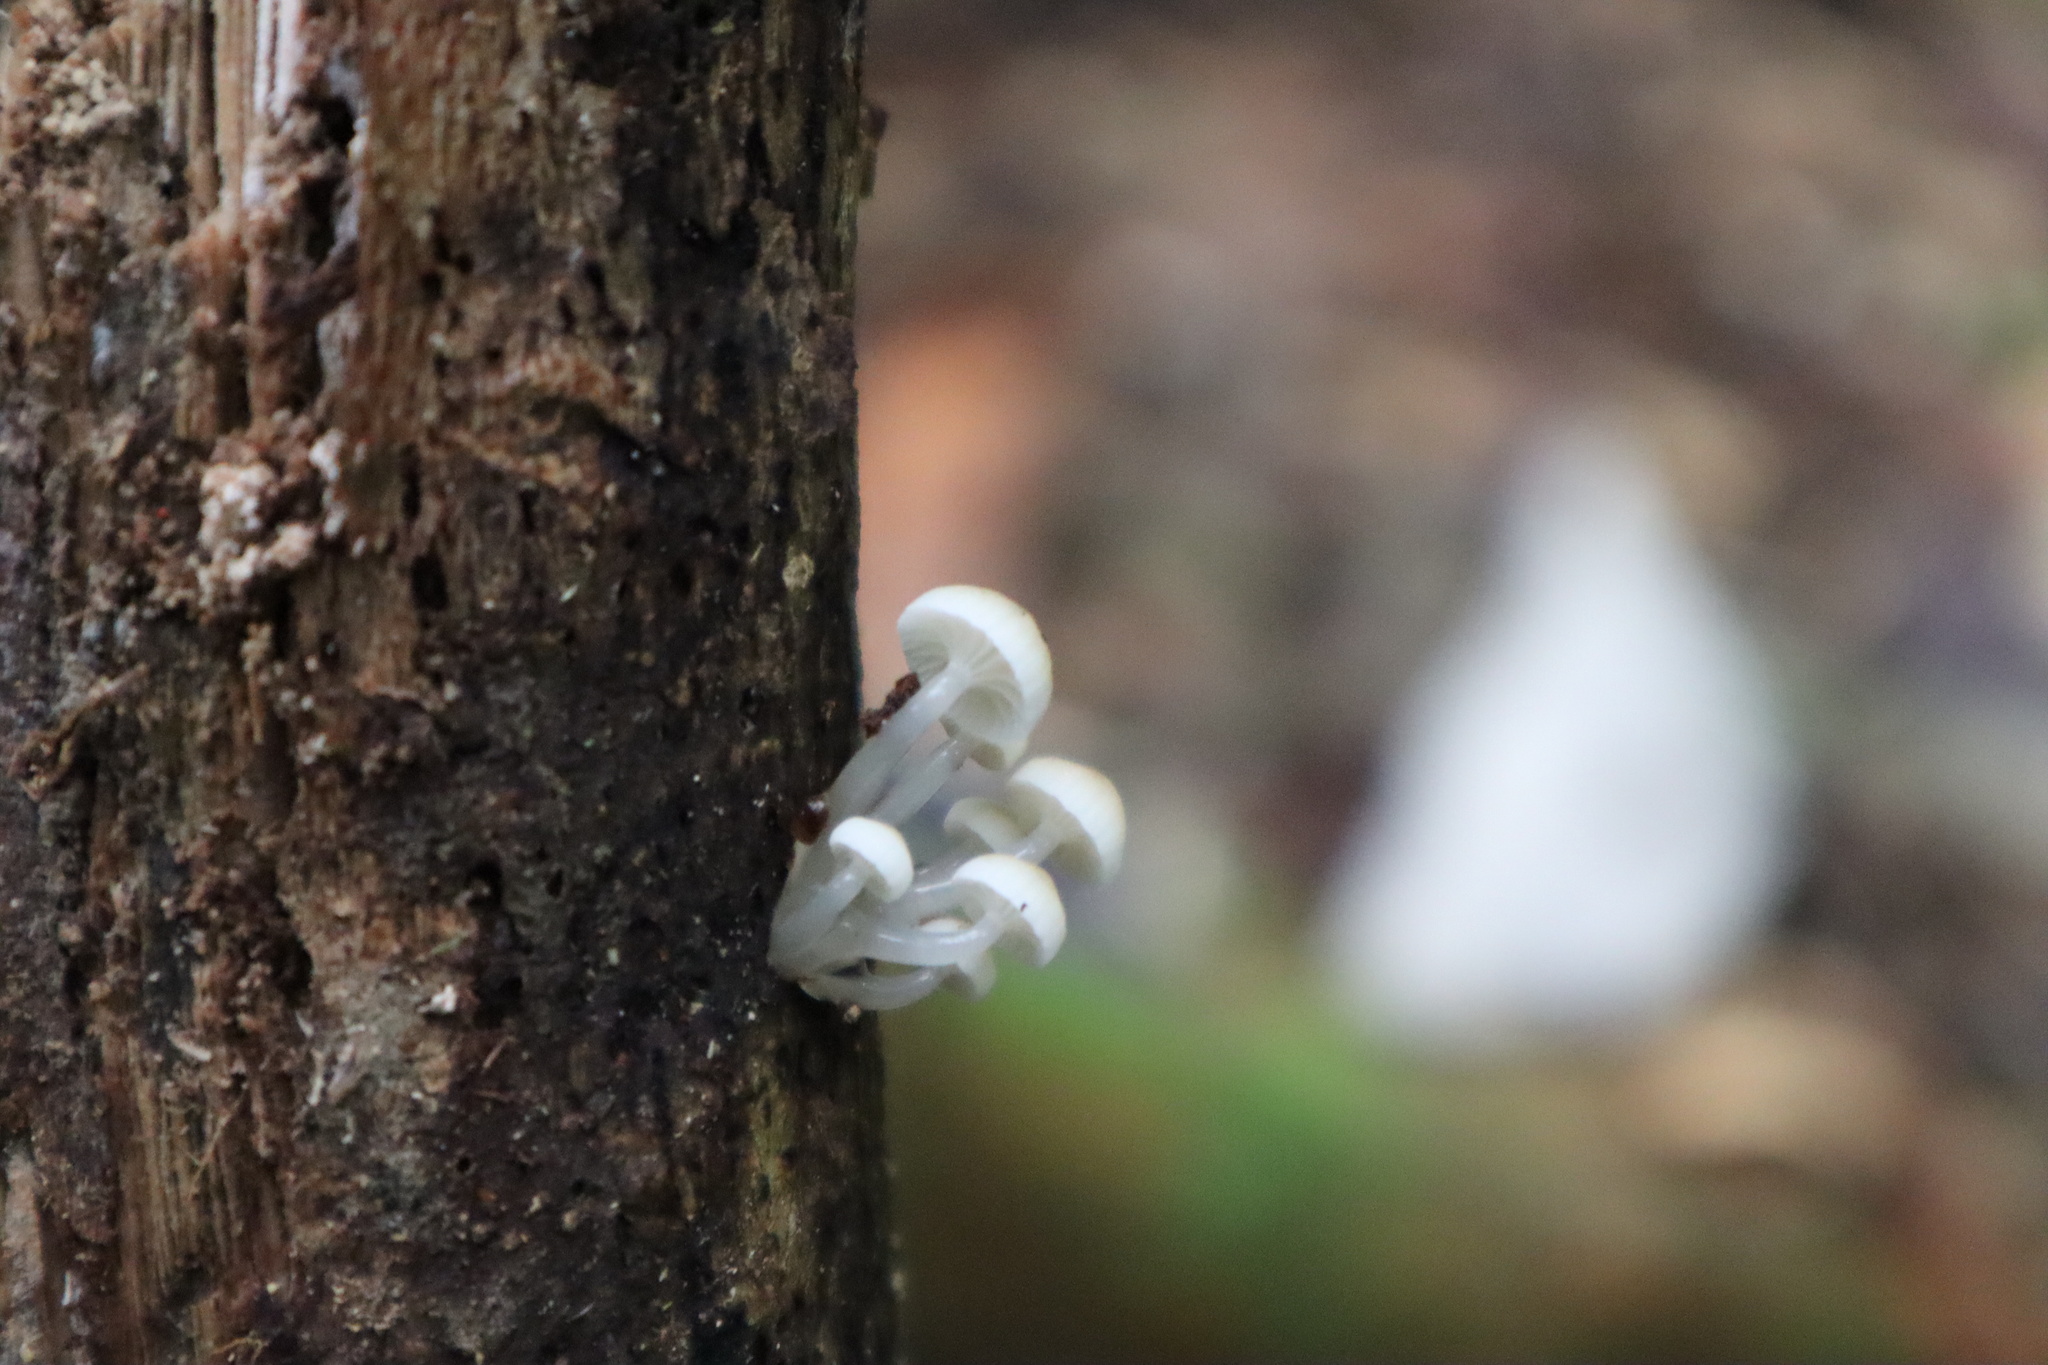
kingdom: Fungi
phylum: Basidiomycota
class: Agaricomycetes
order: Agaricales
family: Mycenaceae
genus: Roridomyces
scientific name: Roridomyces austrororidus
